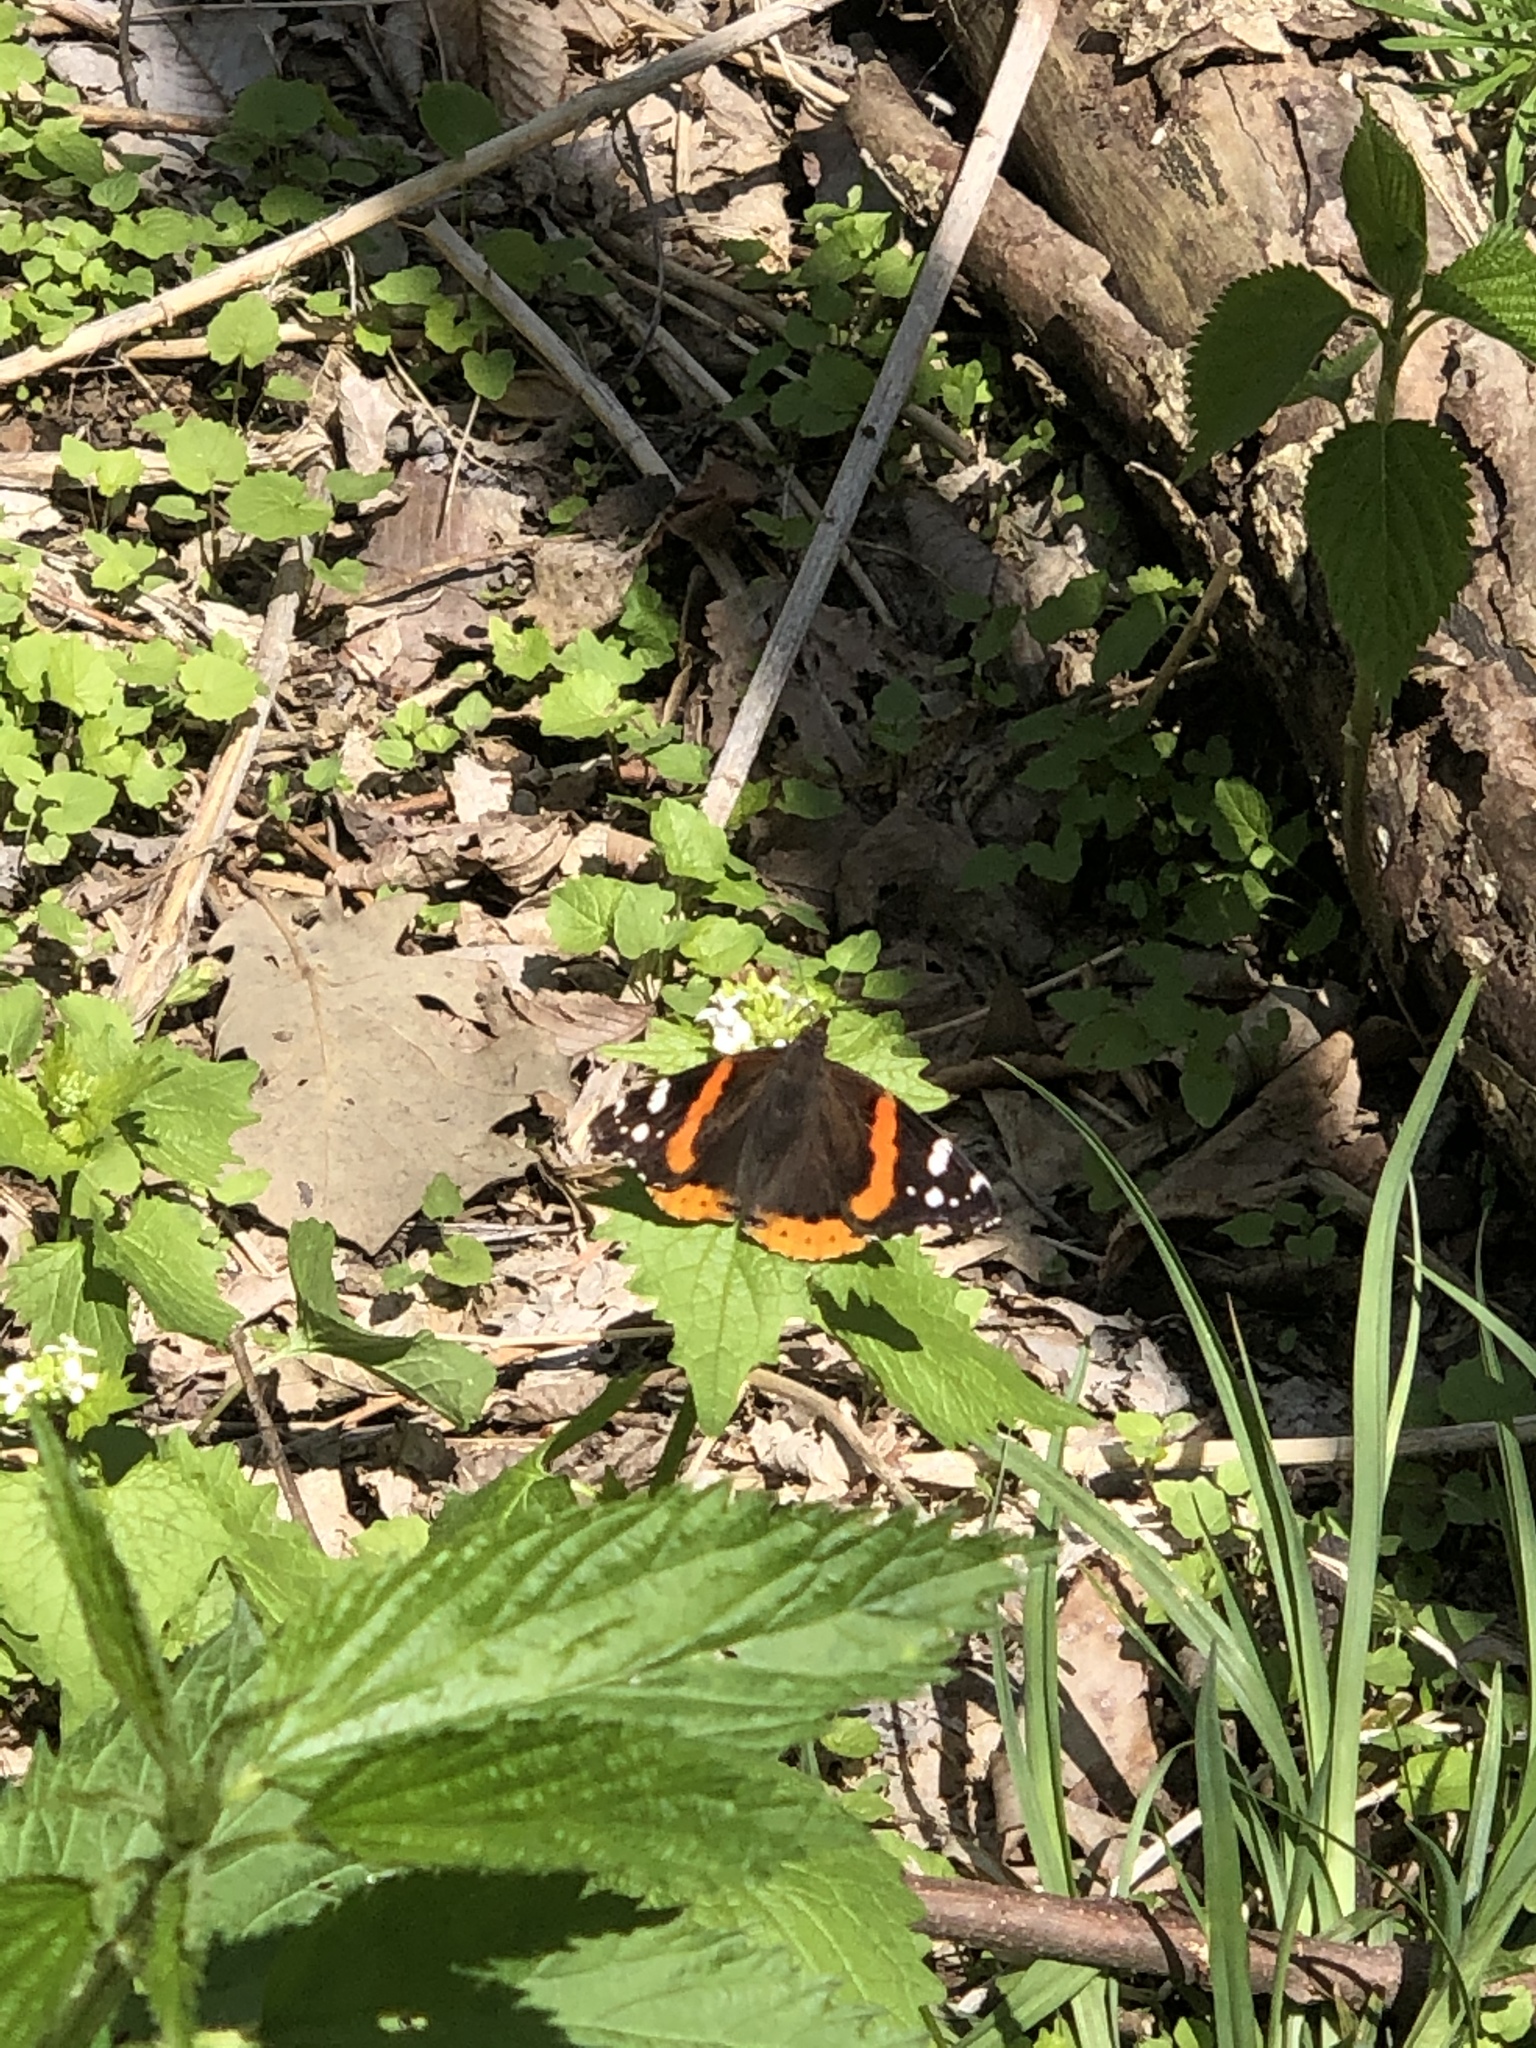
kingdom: Animalia
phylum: Arthropoda
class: Insecta
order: Lepidoptera
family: Nymphalidae
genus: Vanessa
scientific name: Vanessa atalanta
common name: Red admiral
